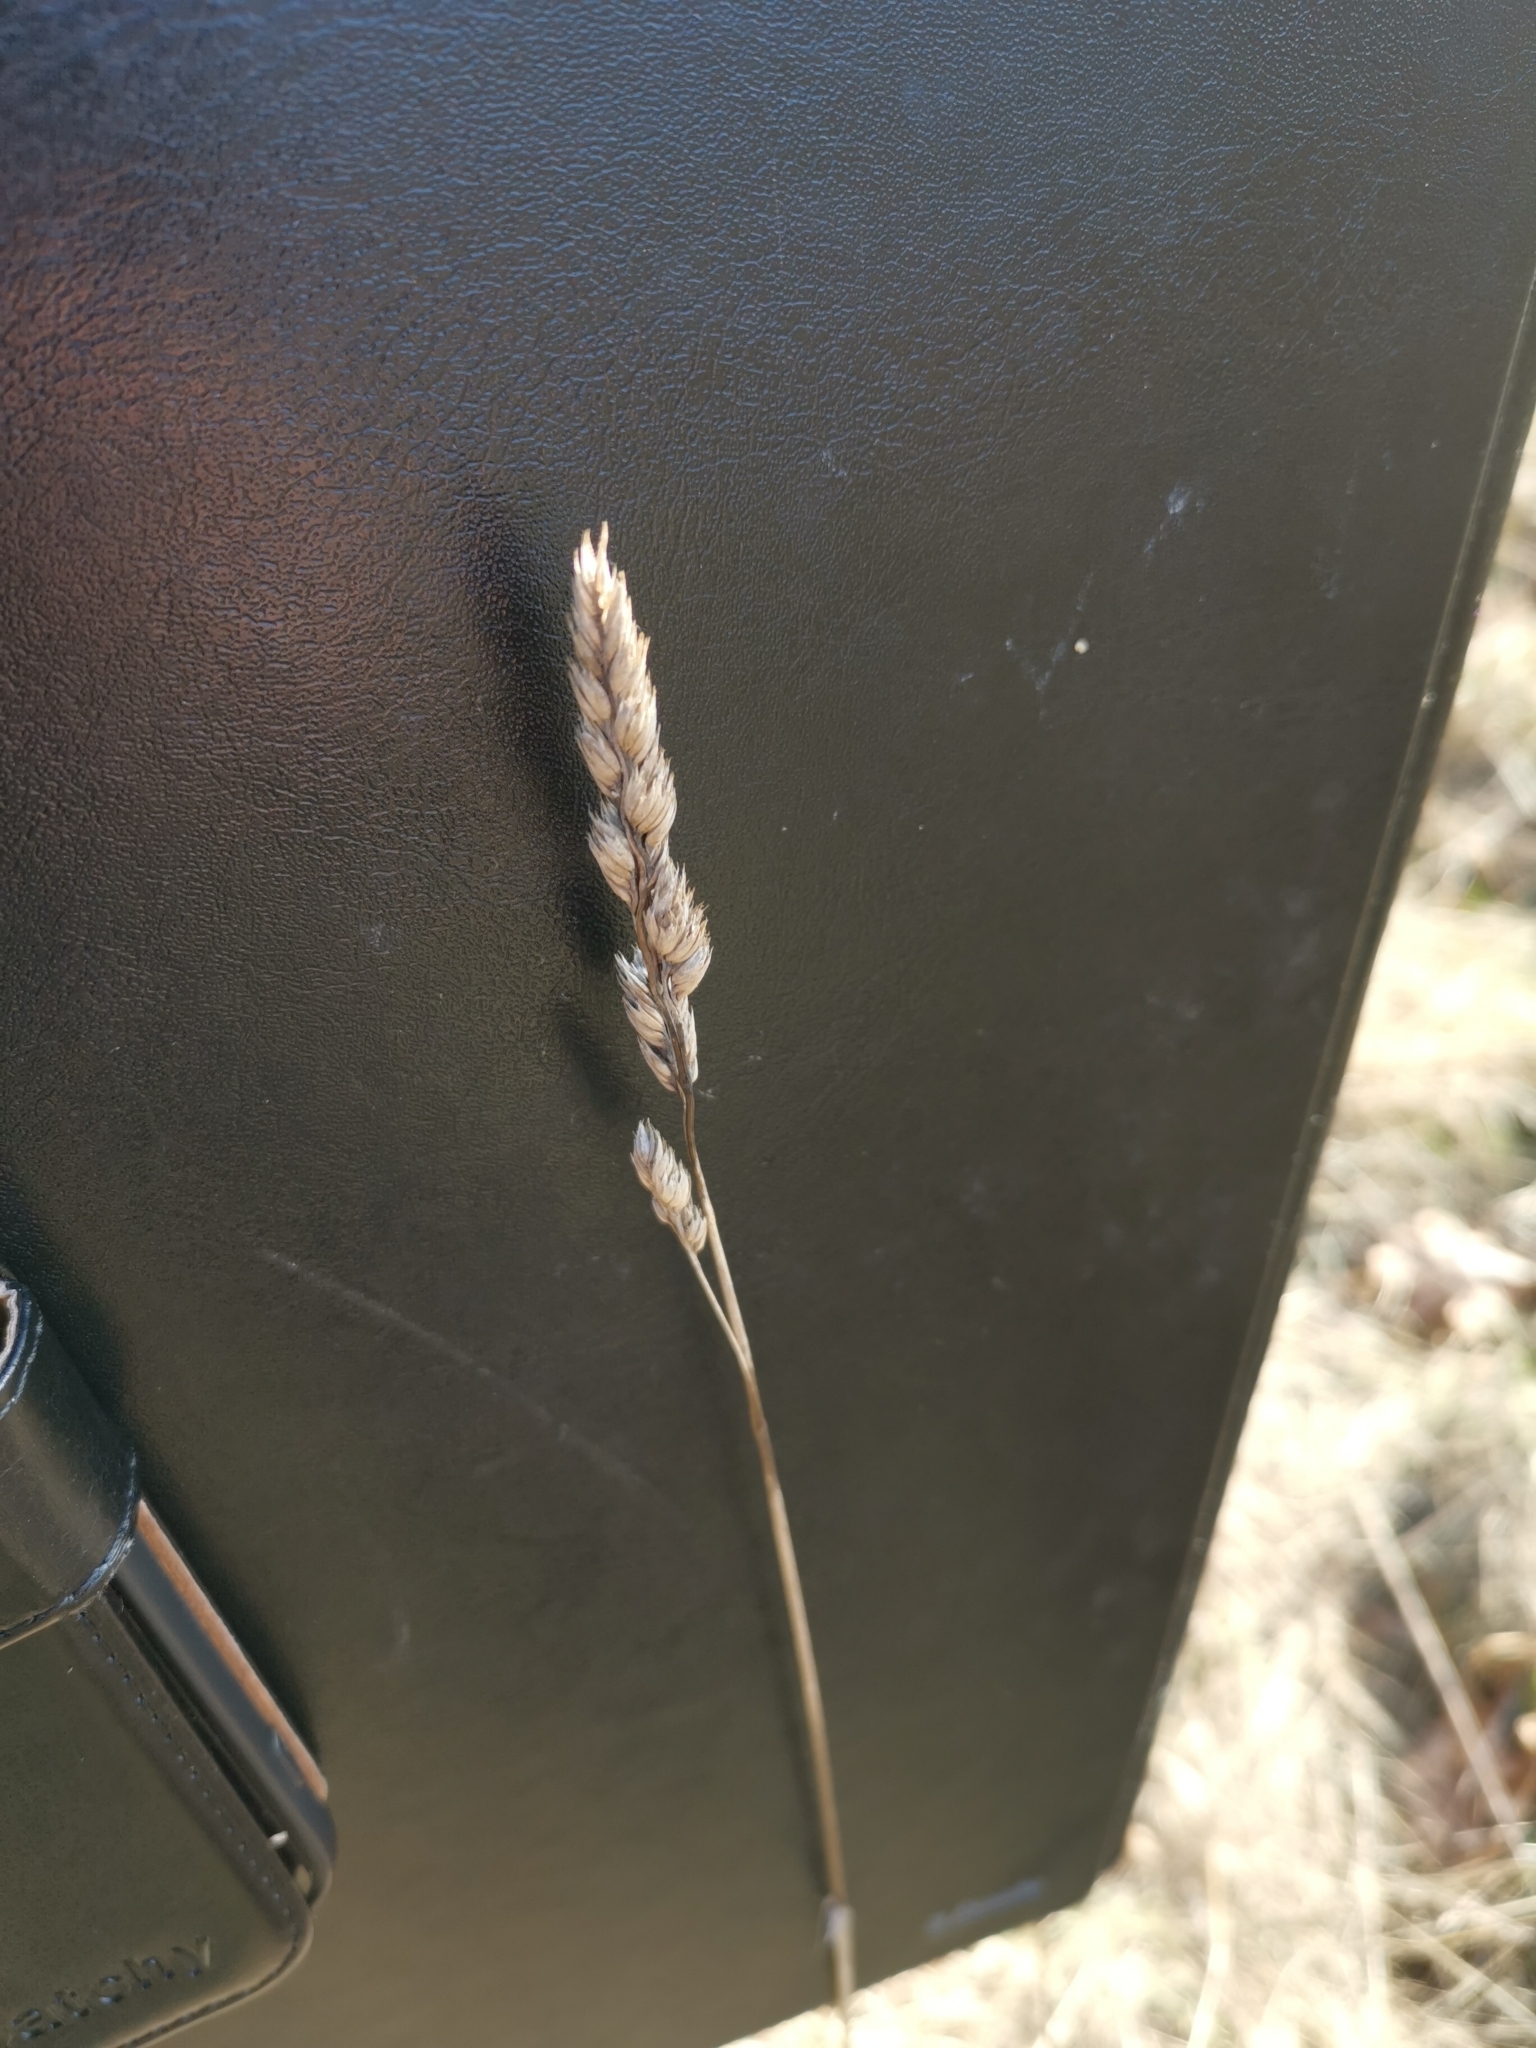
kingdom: Plantae
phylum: Tracheophyta
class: Liliopsida
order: Poales
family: Poaceae
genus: Dactylis
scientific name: Dactylis glomerata
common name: Orchardgrass
